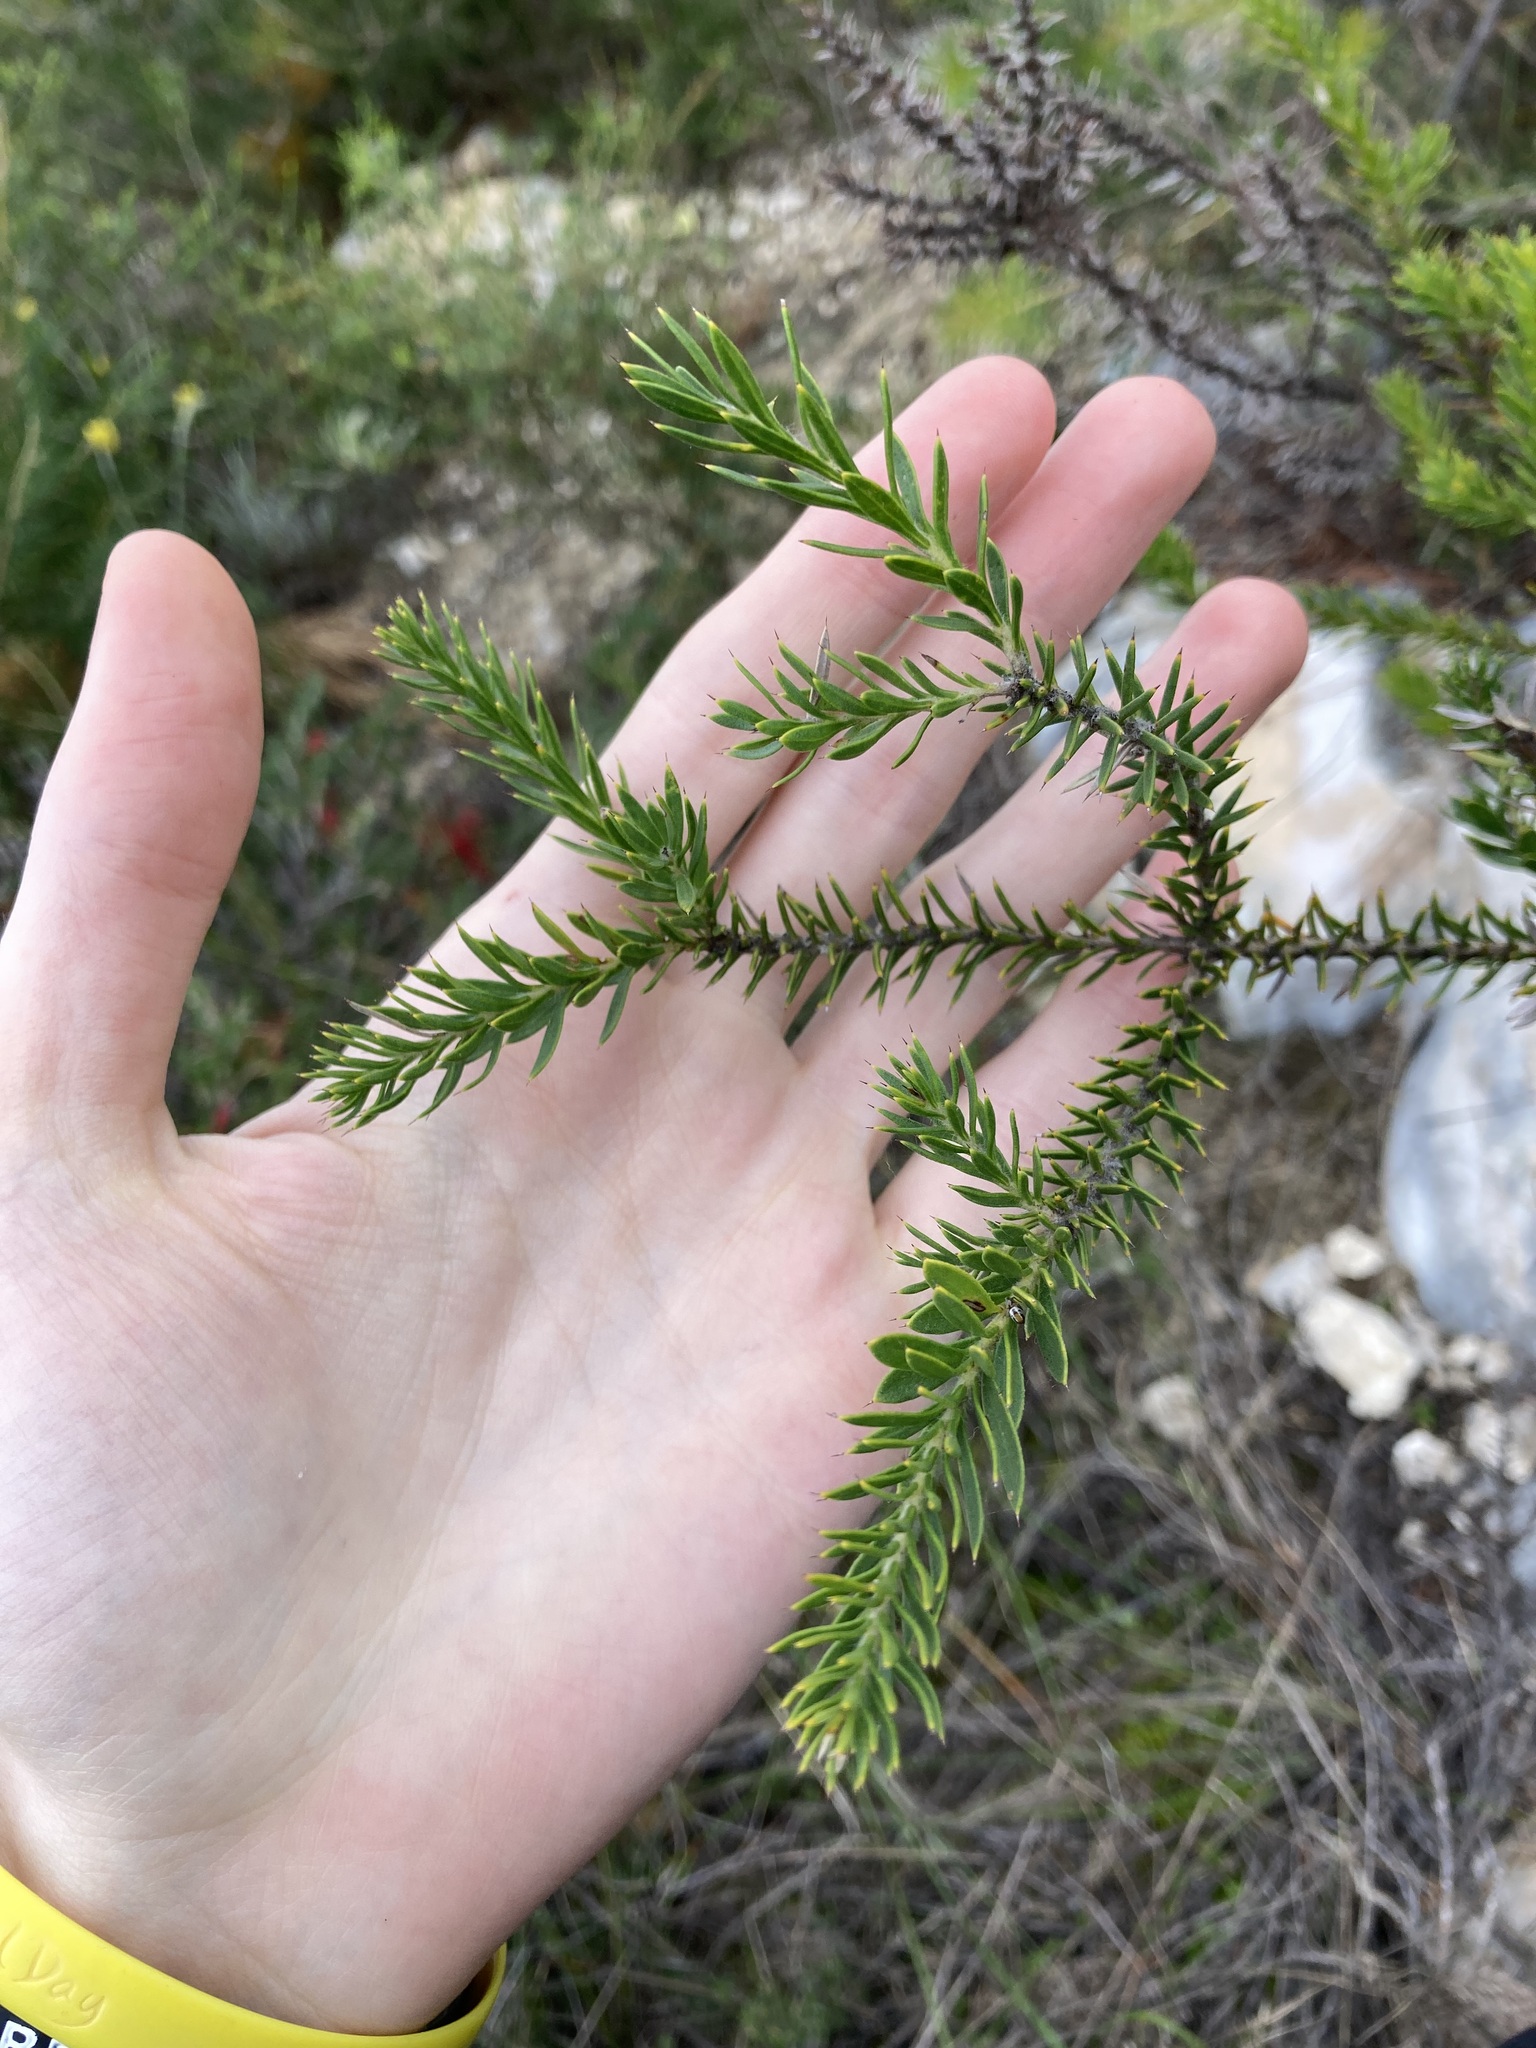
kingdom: Plantae
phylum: Tracheophyta
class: Magnoliopsida
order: Proteales
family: Proteaceae
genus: Hakea
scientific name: Hakea costata
